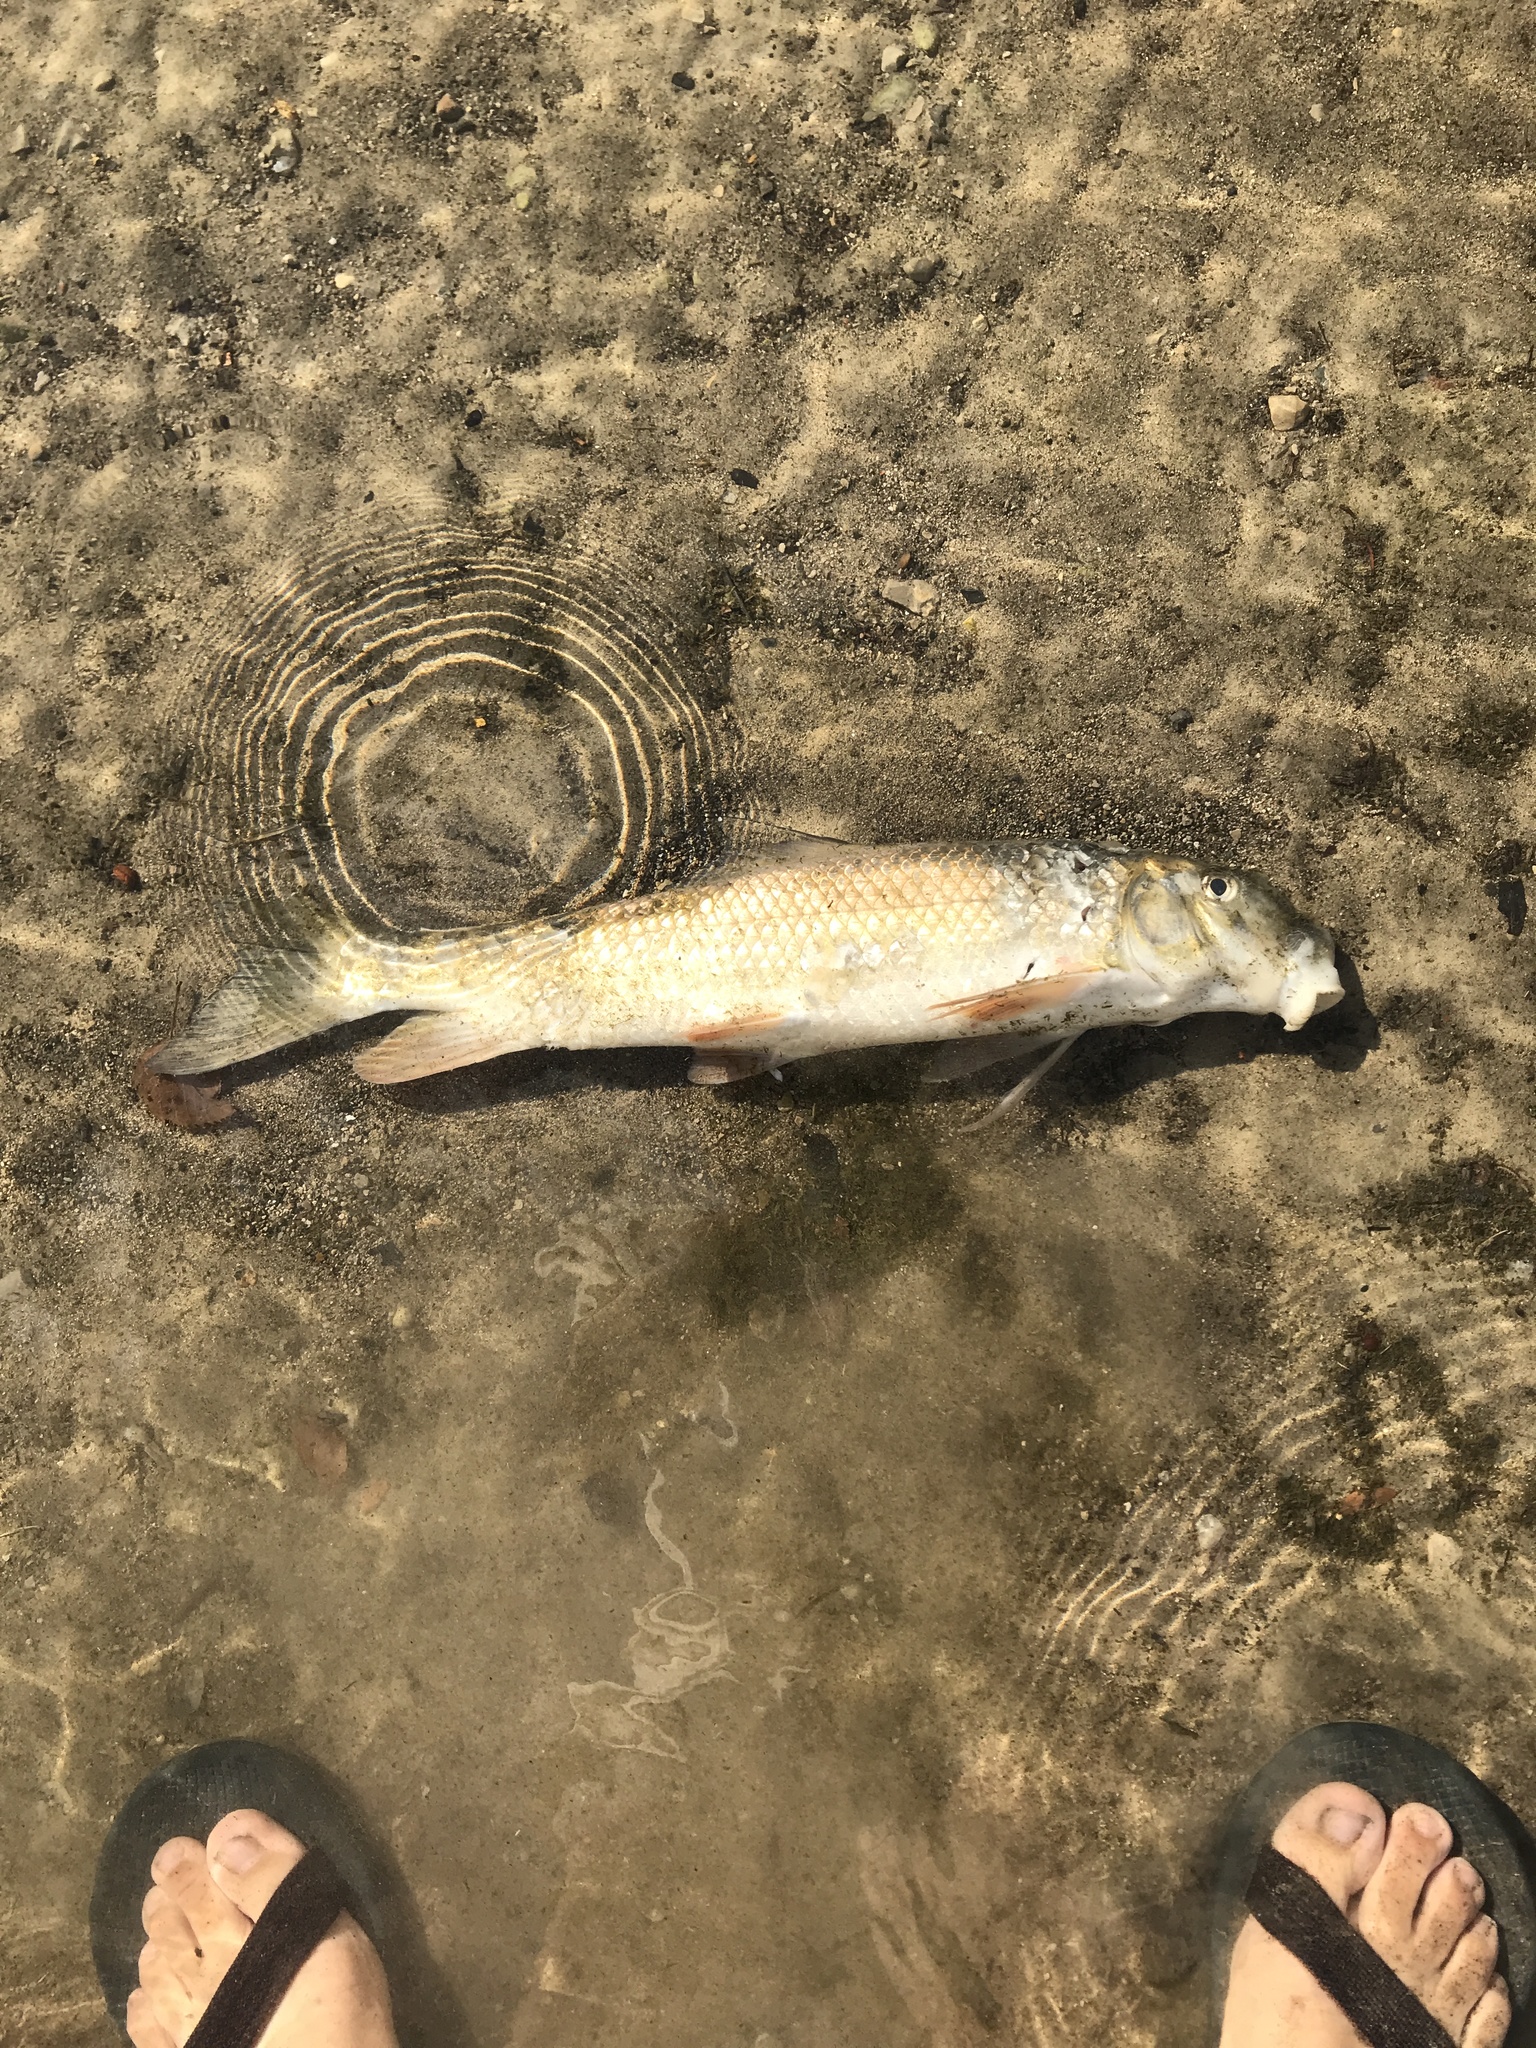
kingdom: Animalia
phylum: Chordata
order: Cypriniformes
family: Catostomidae
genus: Moxostoma
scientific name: Moxostoma erythrurum
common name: Golden redhorse
